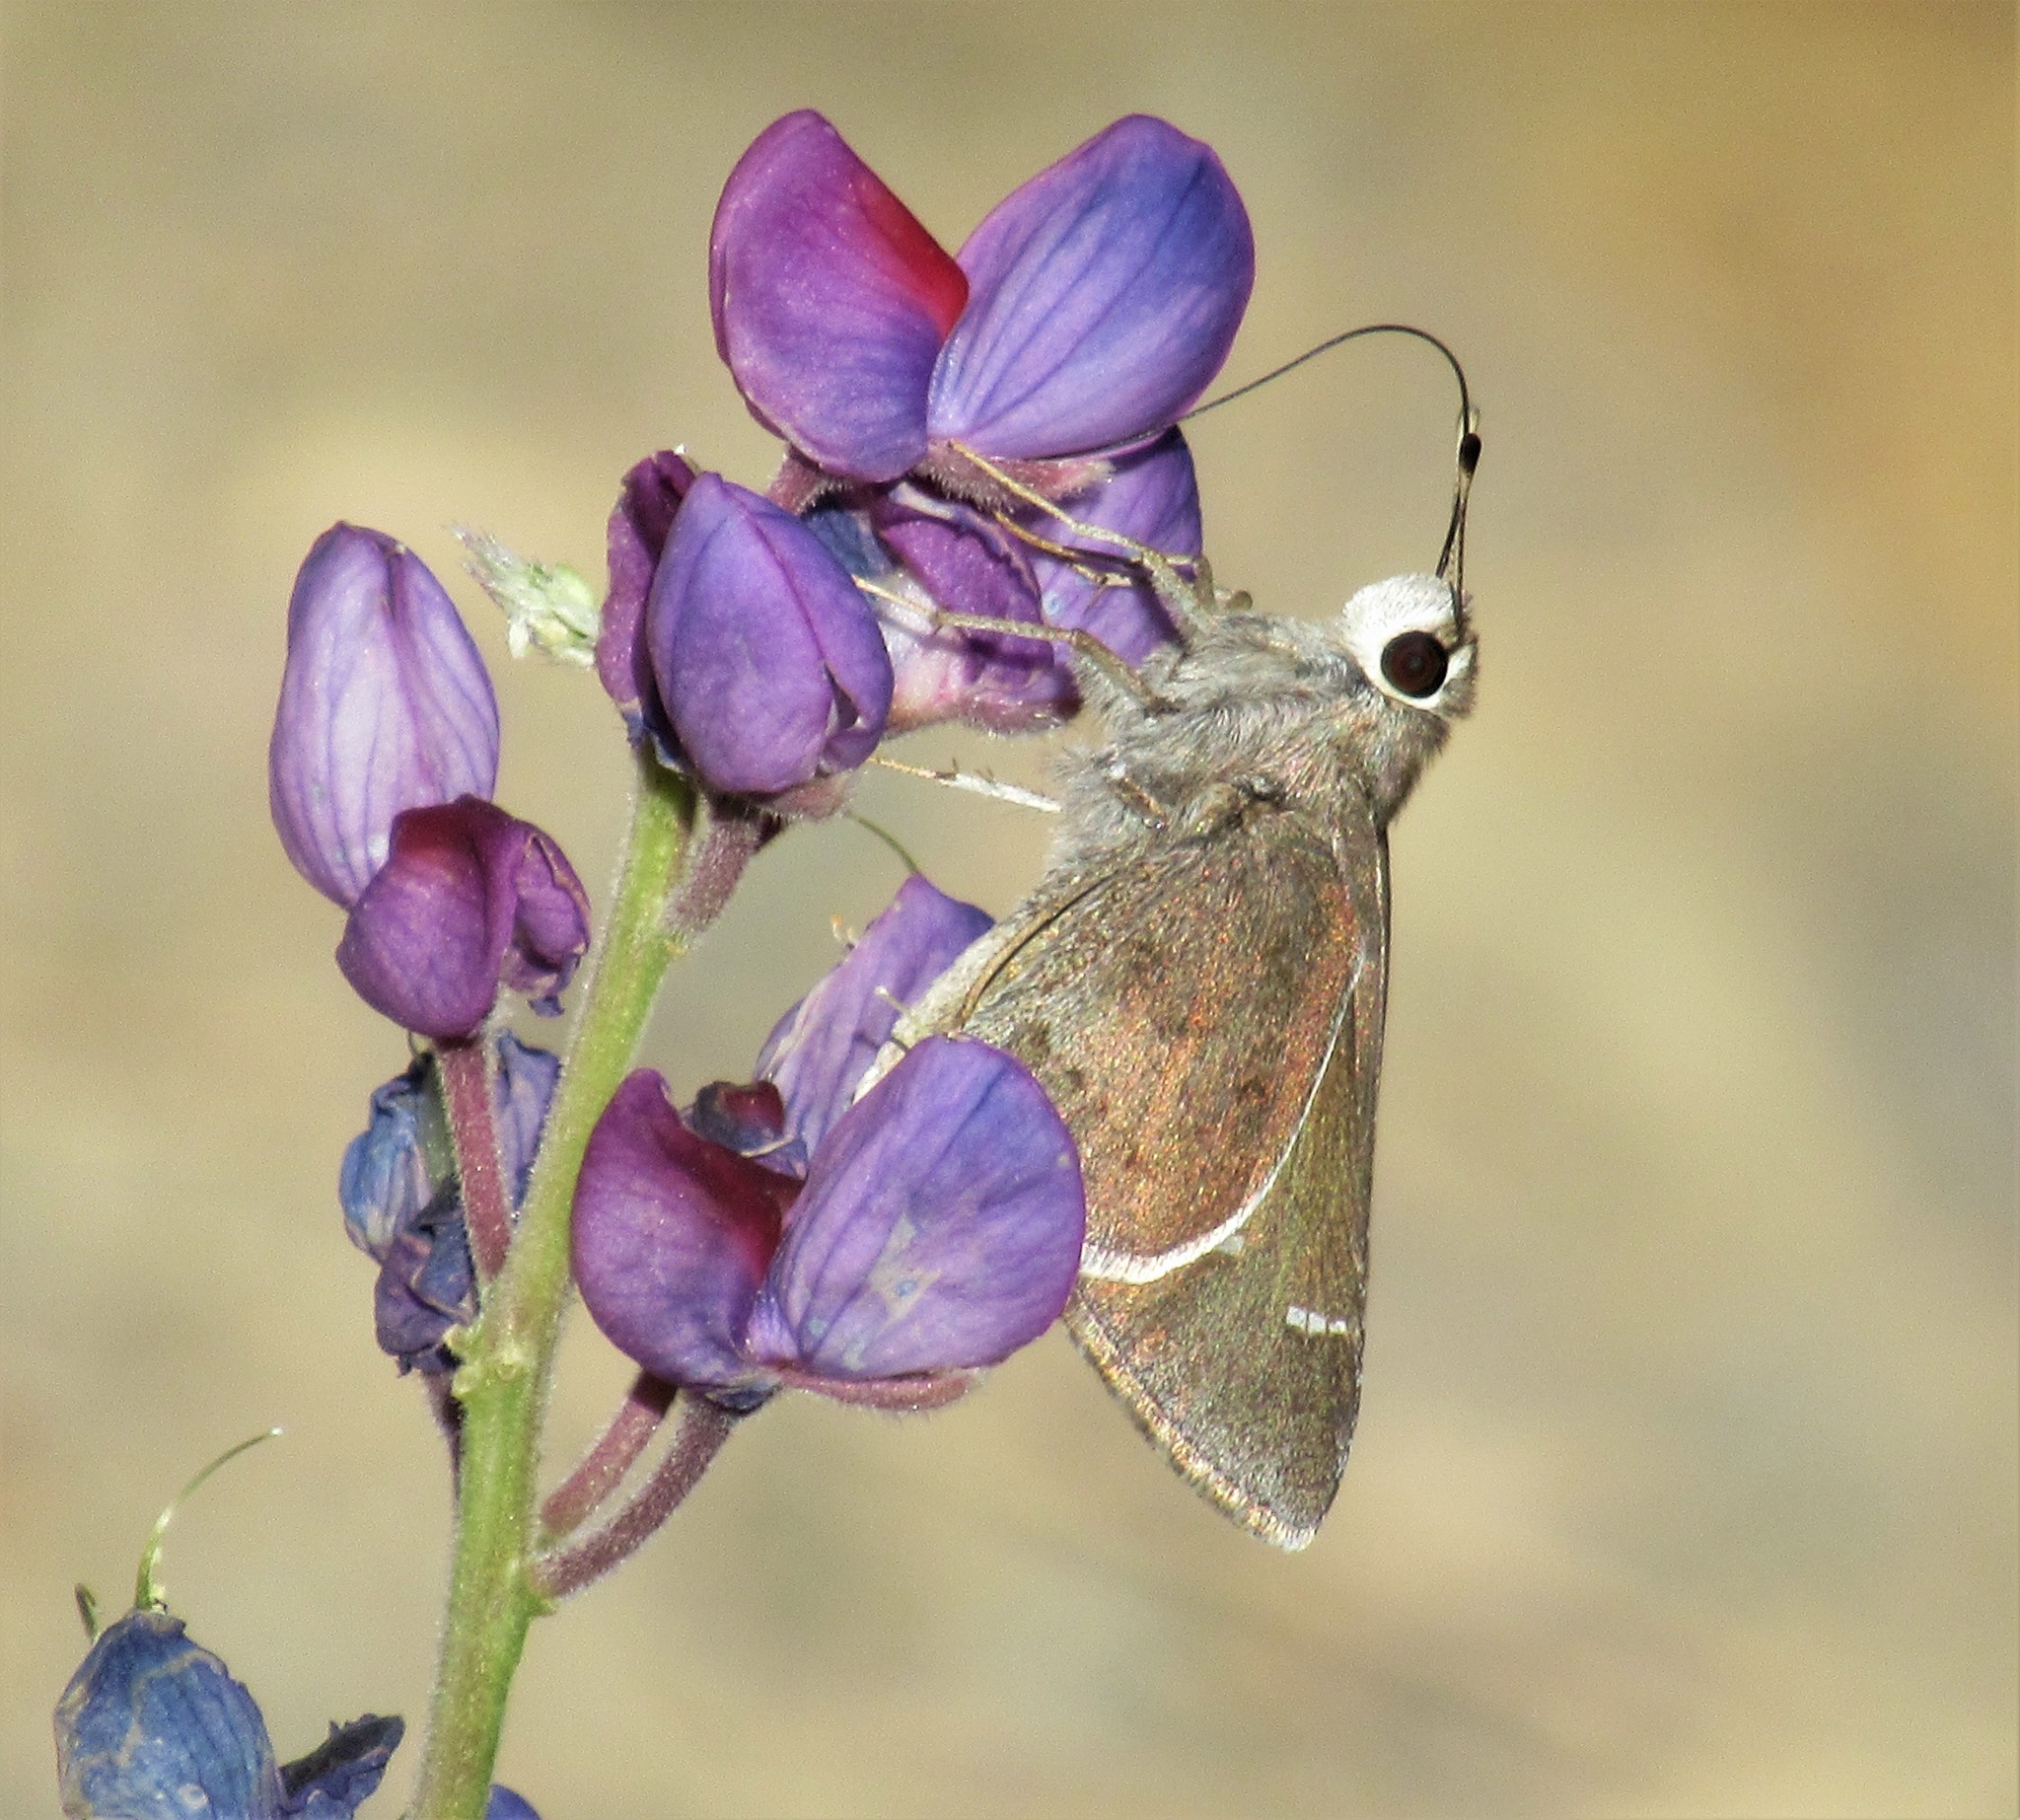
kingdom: Animalia
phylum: Arthropoda
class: Insecta
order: Lepidoptera
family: Hesperiidae
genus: Atrytonopsis
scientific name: Atrytonopsis deva
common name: Deva skipper
